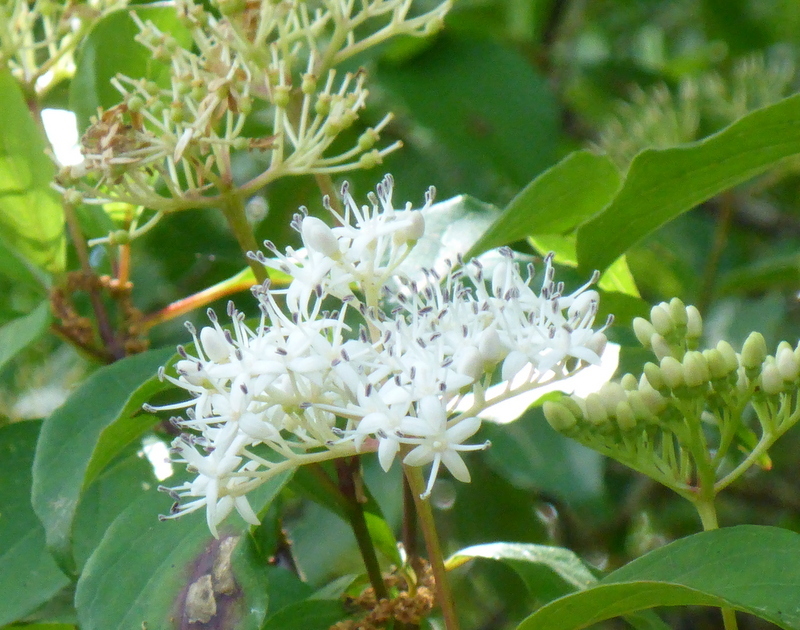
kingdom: Plantae
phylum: Tracheophyta
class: Magnoliopsida
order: Cornales
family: Cornaceae
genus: Cornus
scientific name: Cornus foemina
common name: Swamp dogwood
